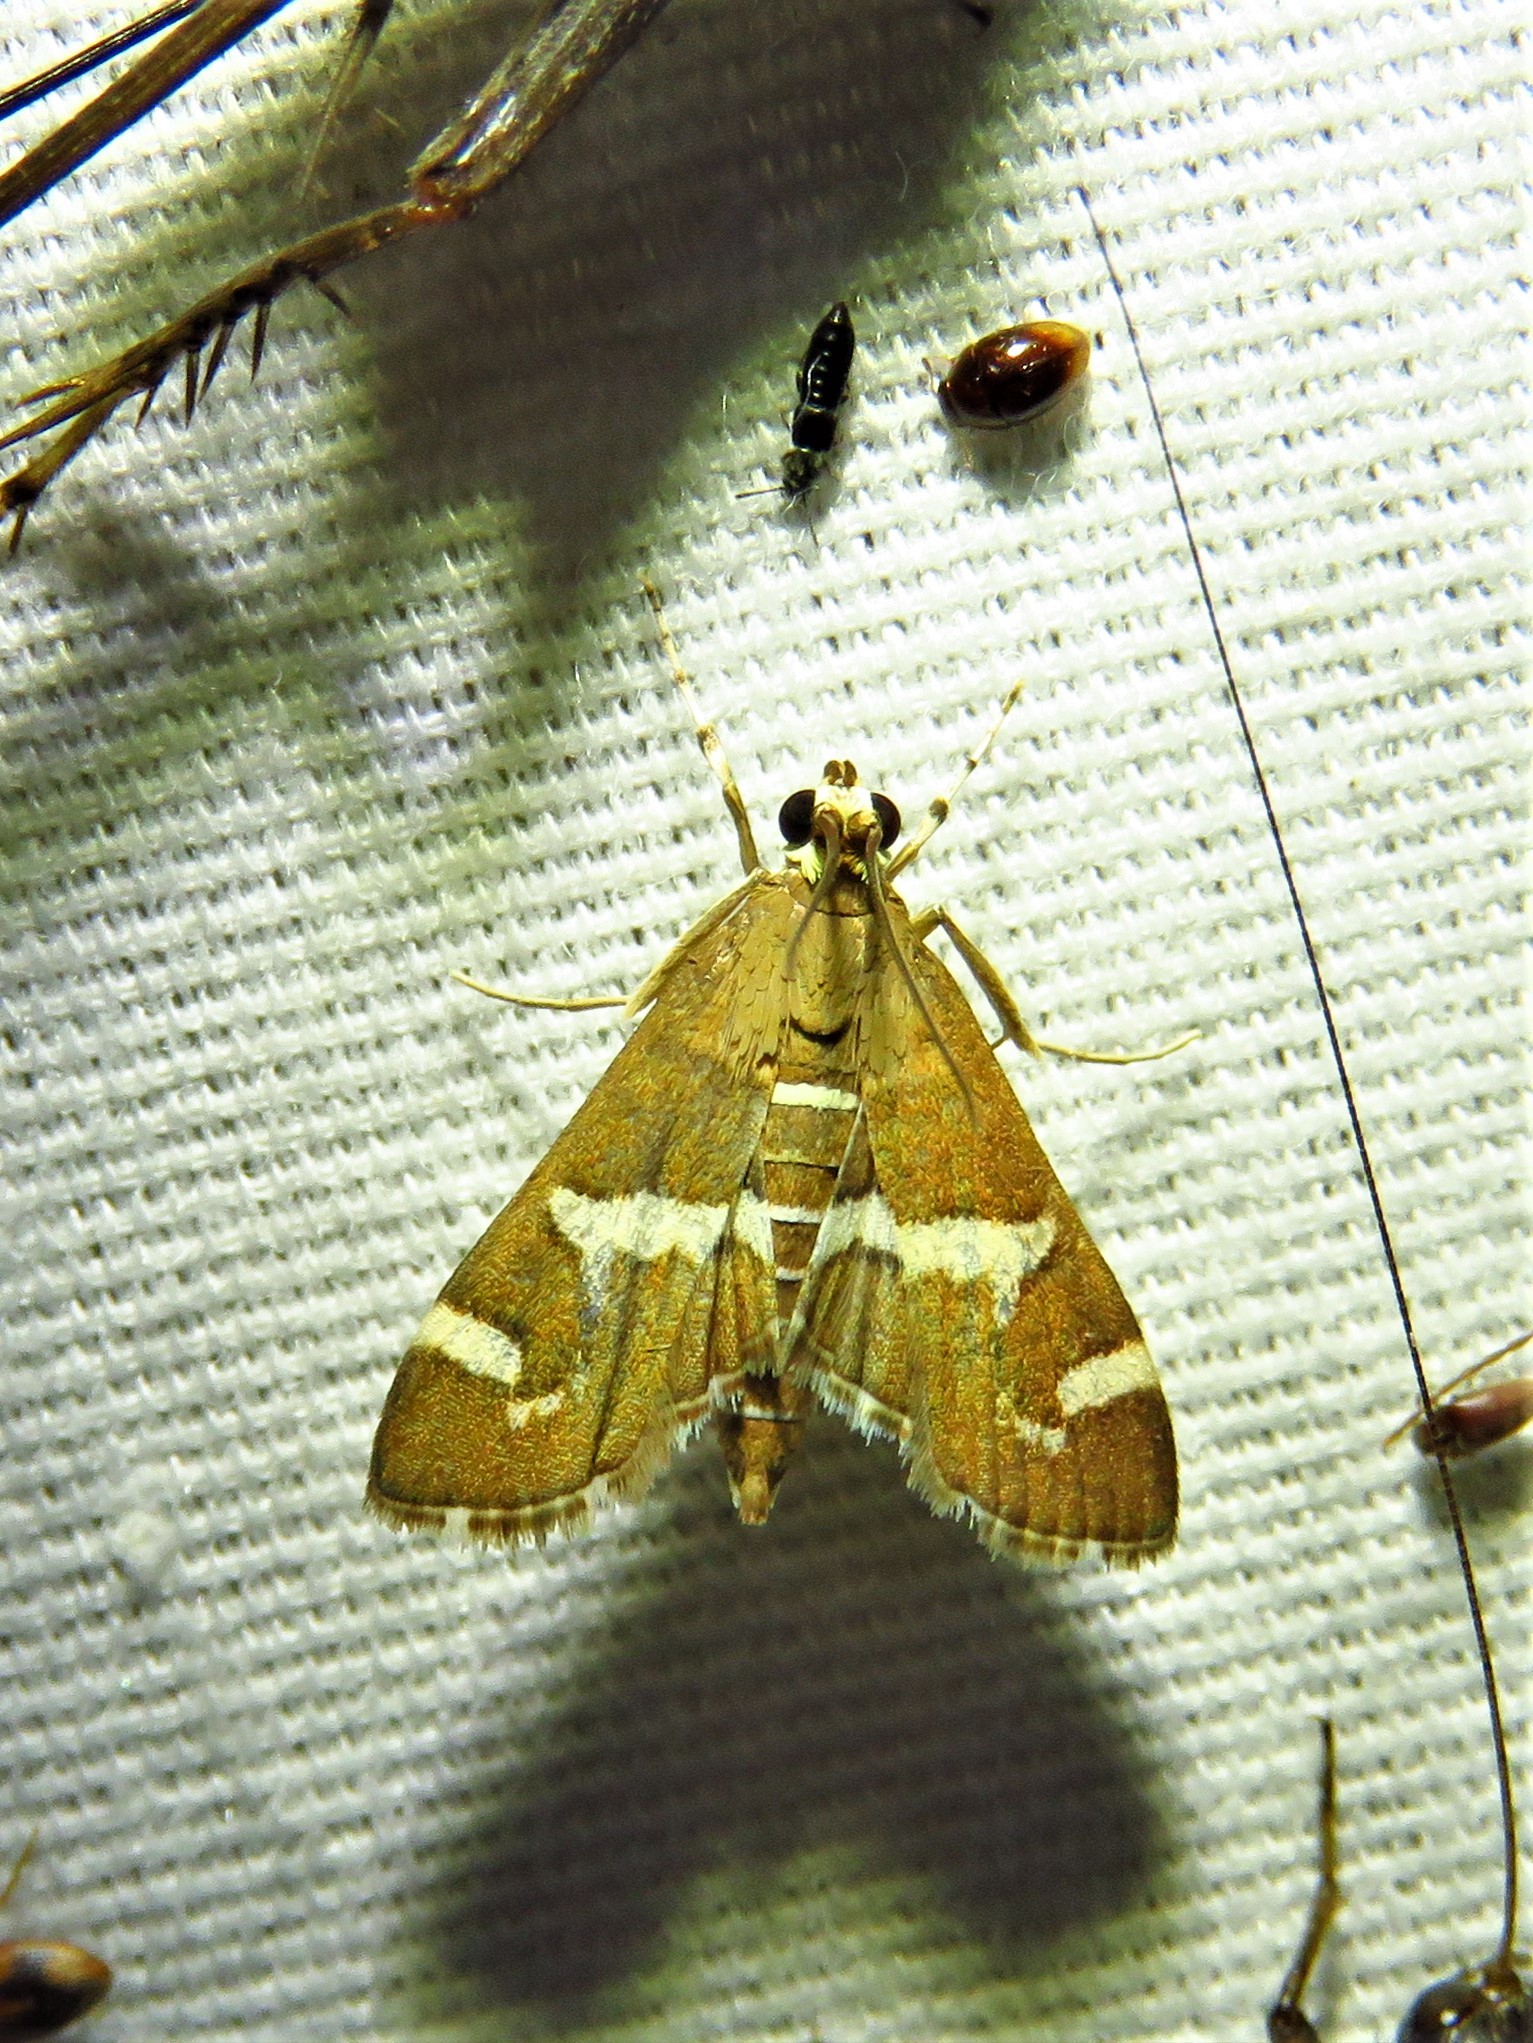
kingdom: Animalia
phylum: Arthropoda
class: Insecta
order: Lepidoptera
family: Crambidae
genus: Spoladea
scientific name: Spoladea recurvalis
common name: Beet webworm moth
